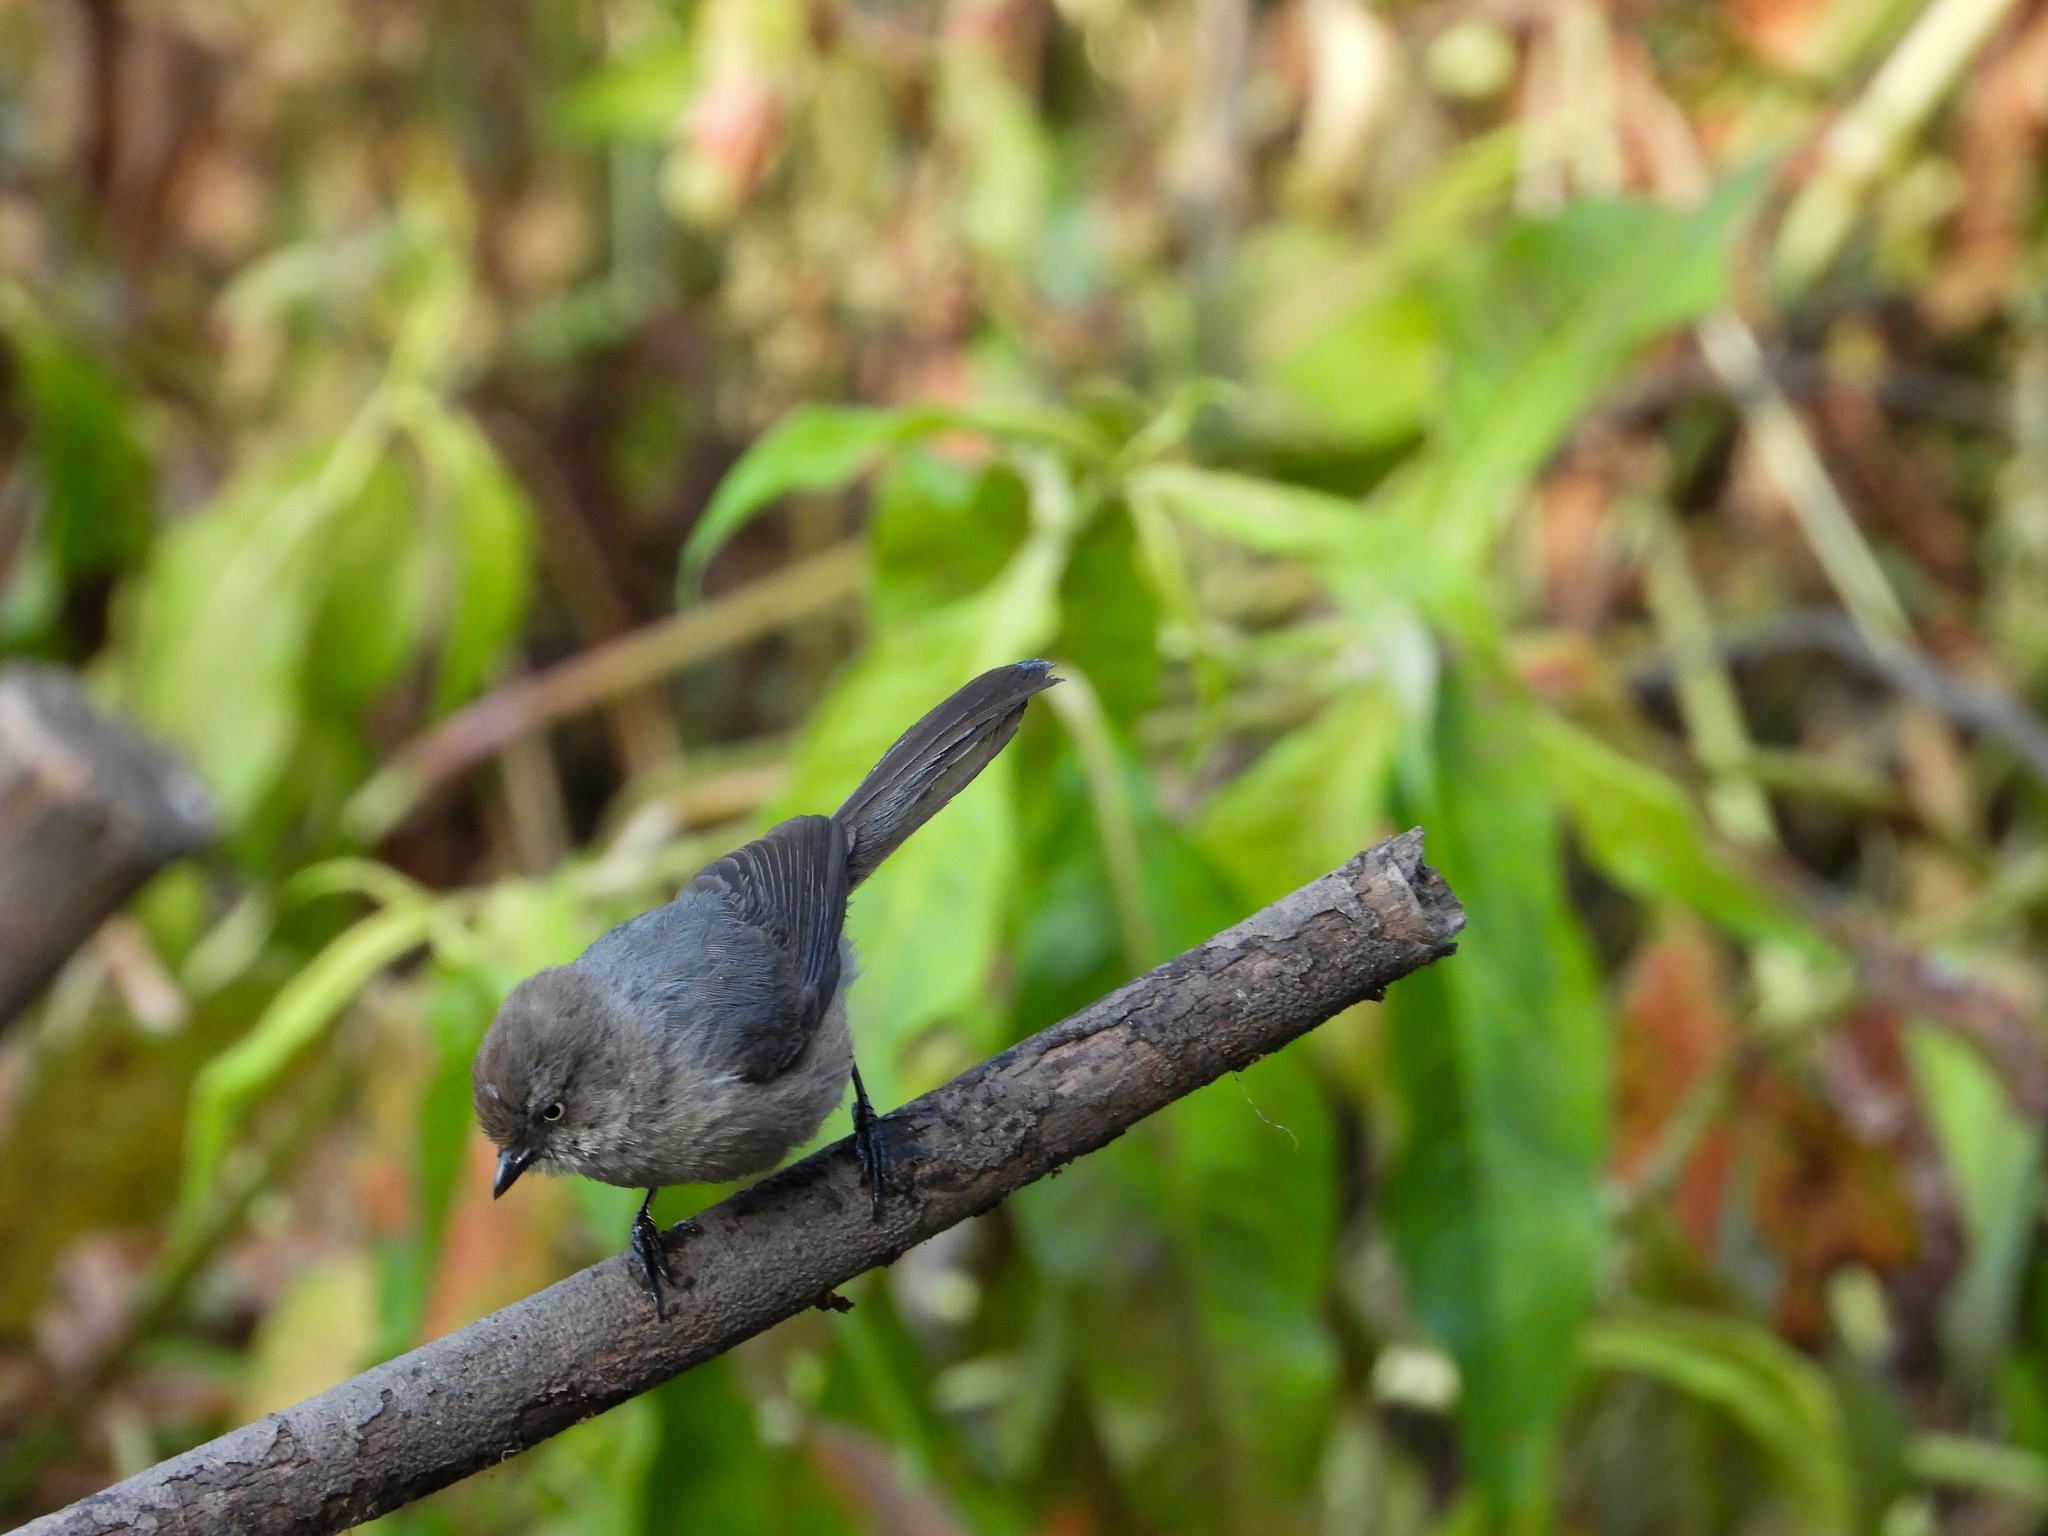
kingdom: Animalia
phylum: Chordata
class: Aves
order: Passeriformes
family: Aegithalidae
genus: Psaltriparus
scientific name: Psaltriparus minimus
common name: American bushtit
